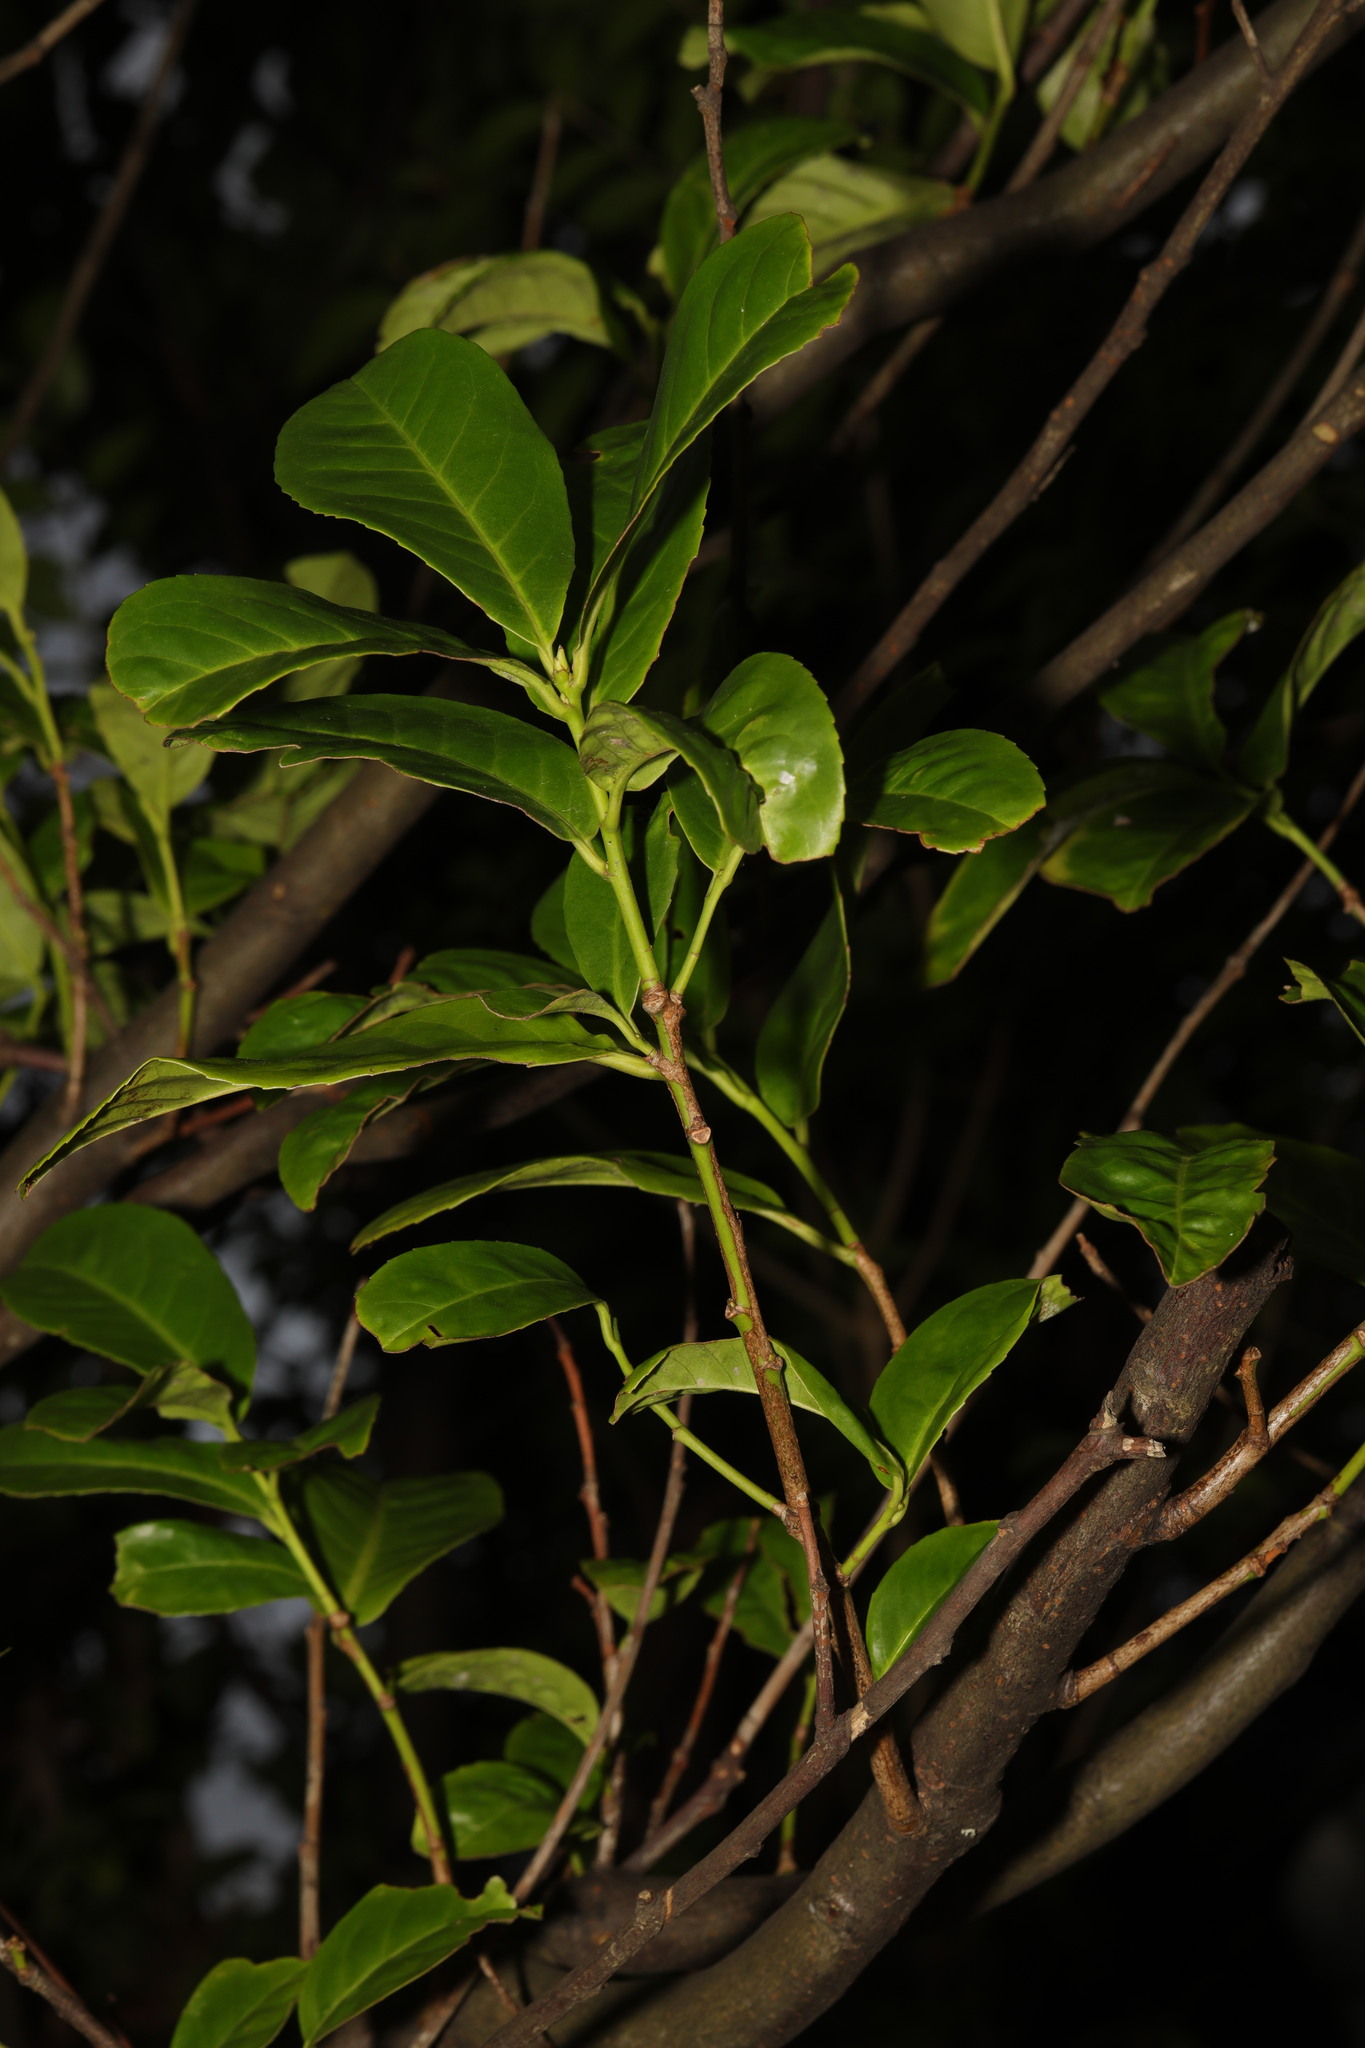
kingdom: Plantae
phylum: Tracheophyta
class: Magnoliopsida
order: Rosales
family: Rosaceae
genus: Prunus
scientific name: Prunus laurocerasus
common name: Cherry laurel
